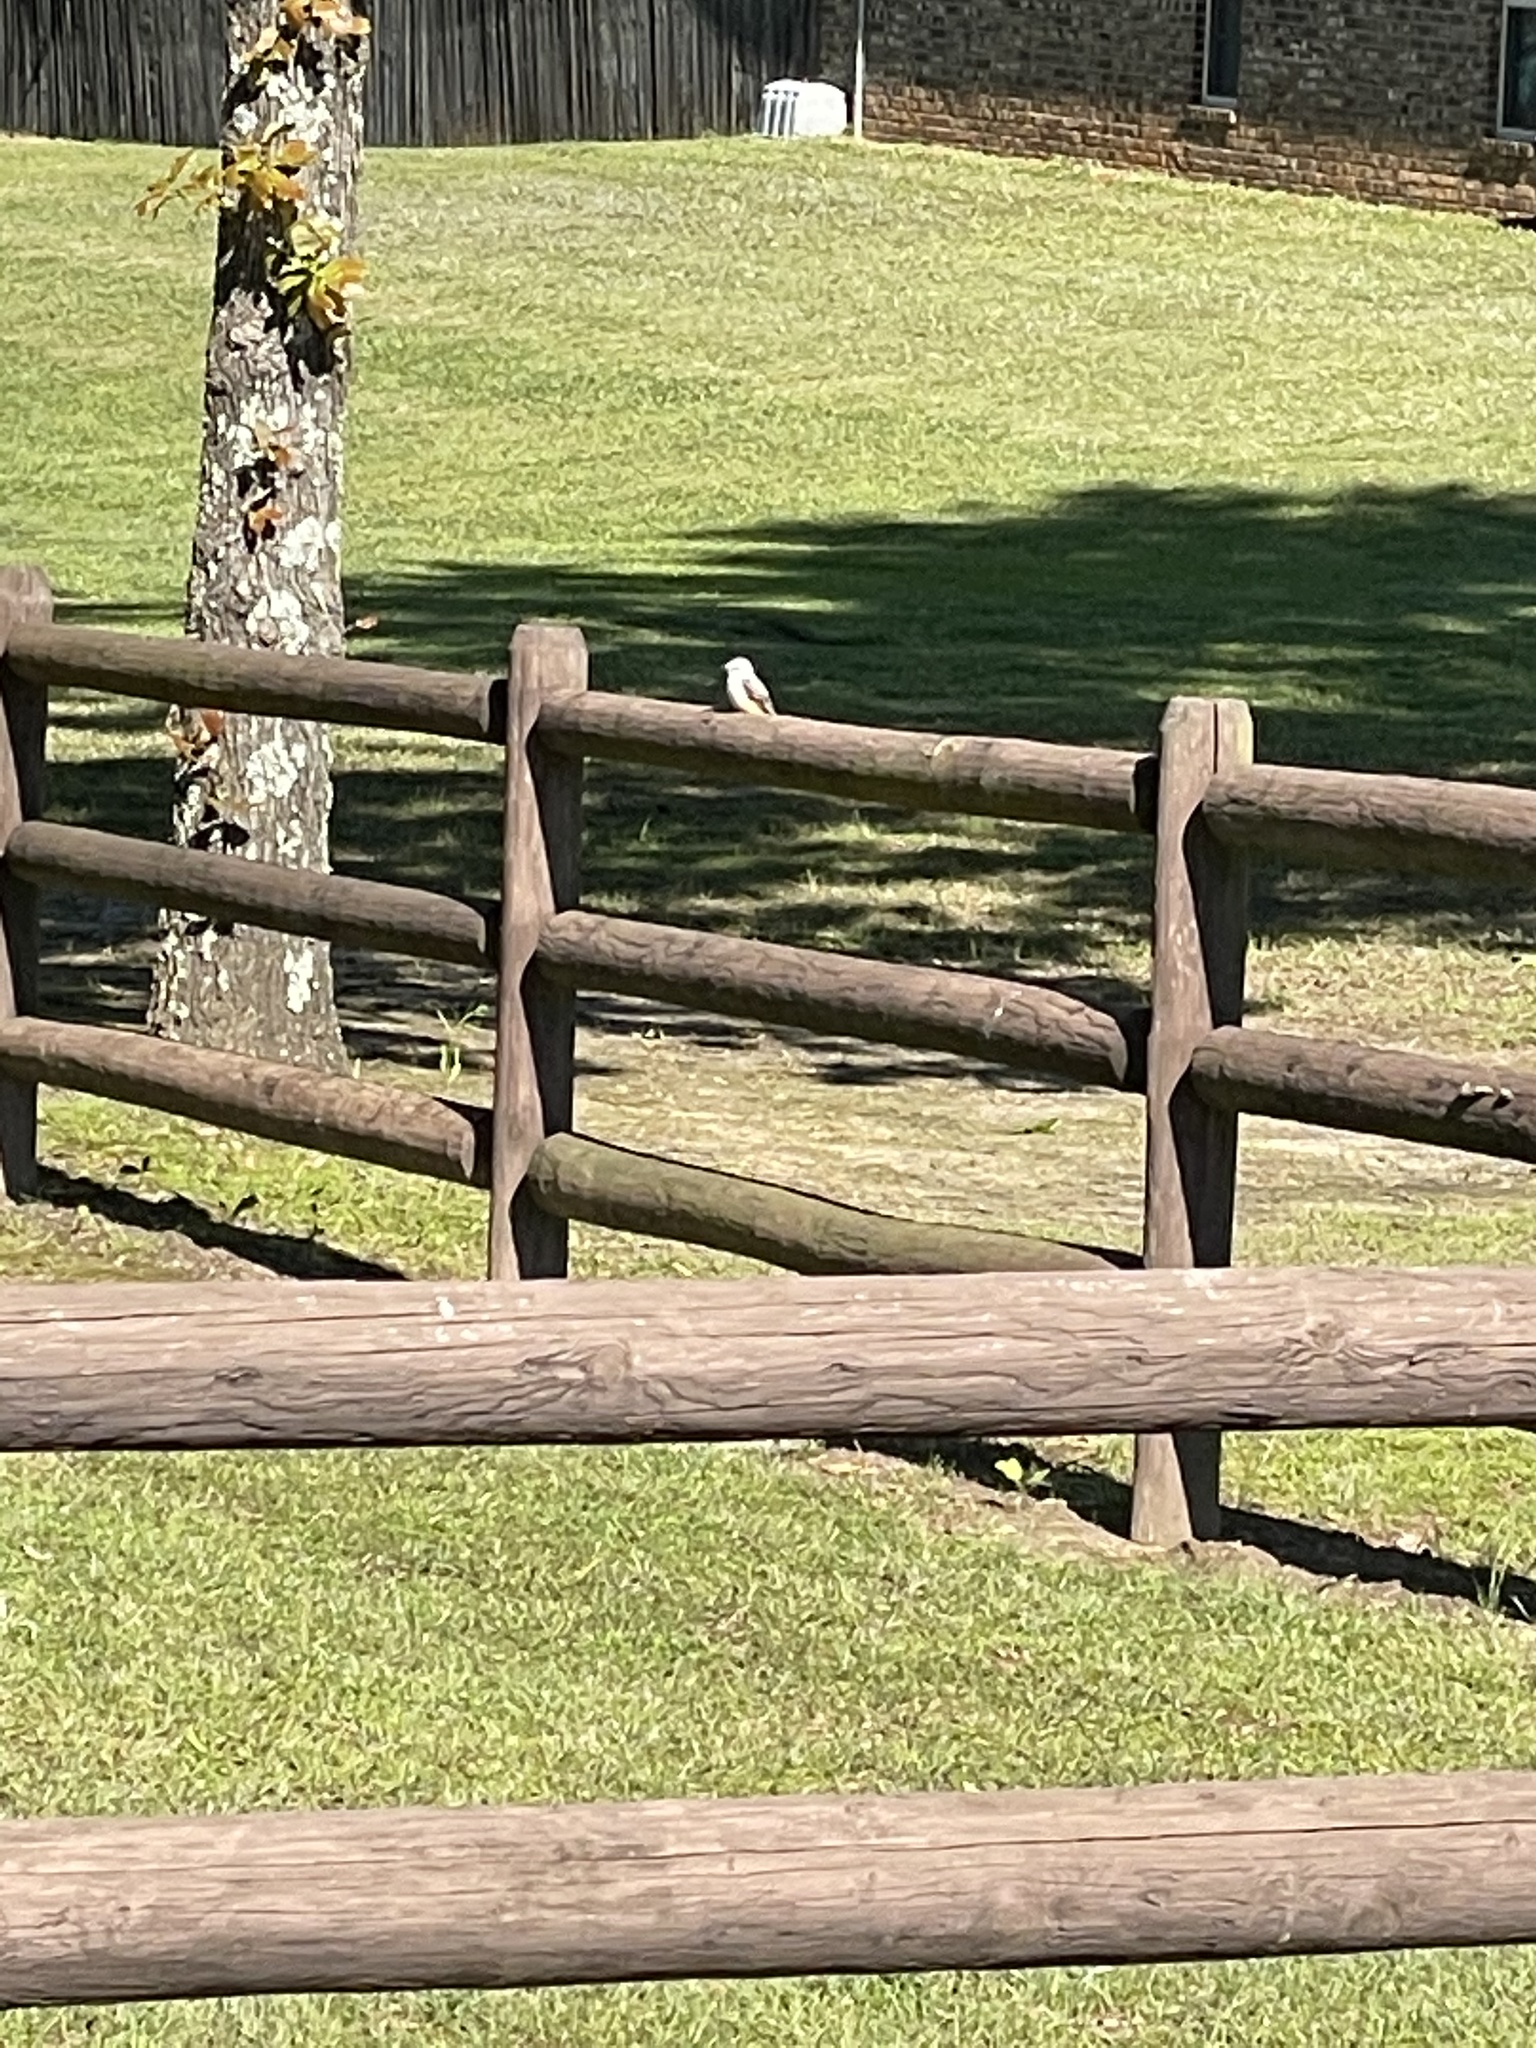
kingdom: Animalia
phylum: Chordata
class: Aves
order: Passeriformes
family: Tyrannidae
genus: Tyrannus
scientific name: Tyrannus forficatus
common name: Scissor-tailed flycatcher
